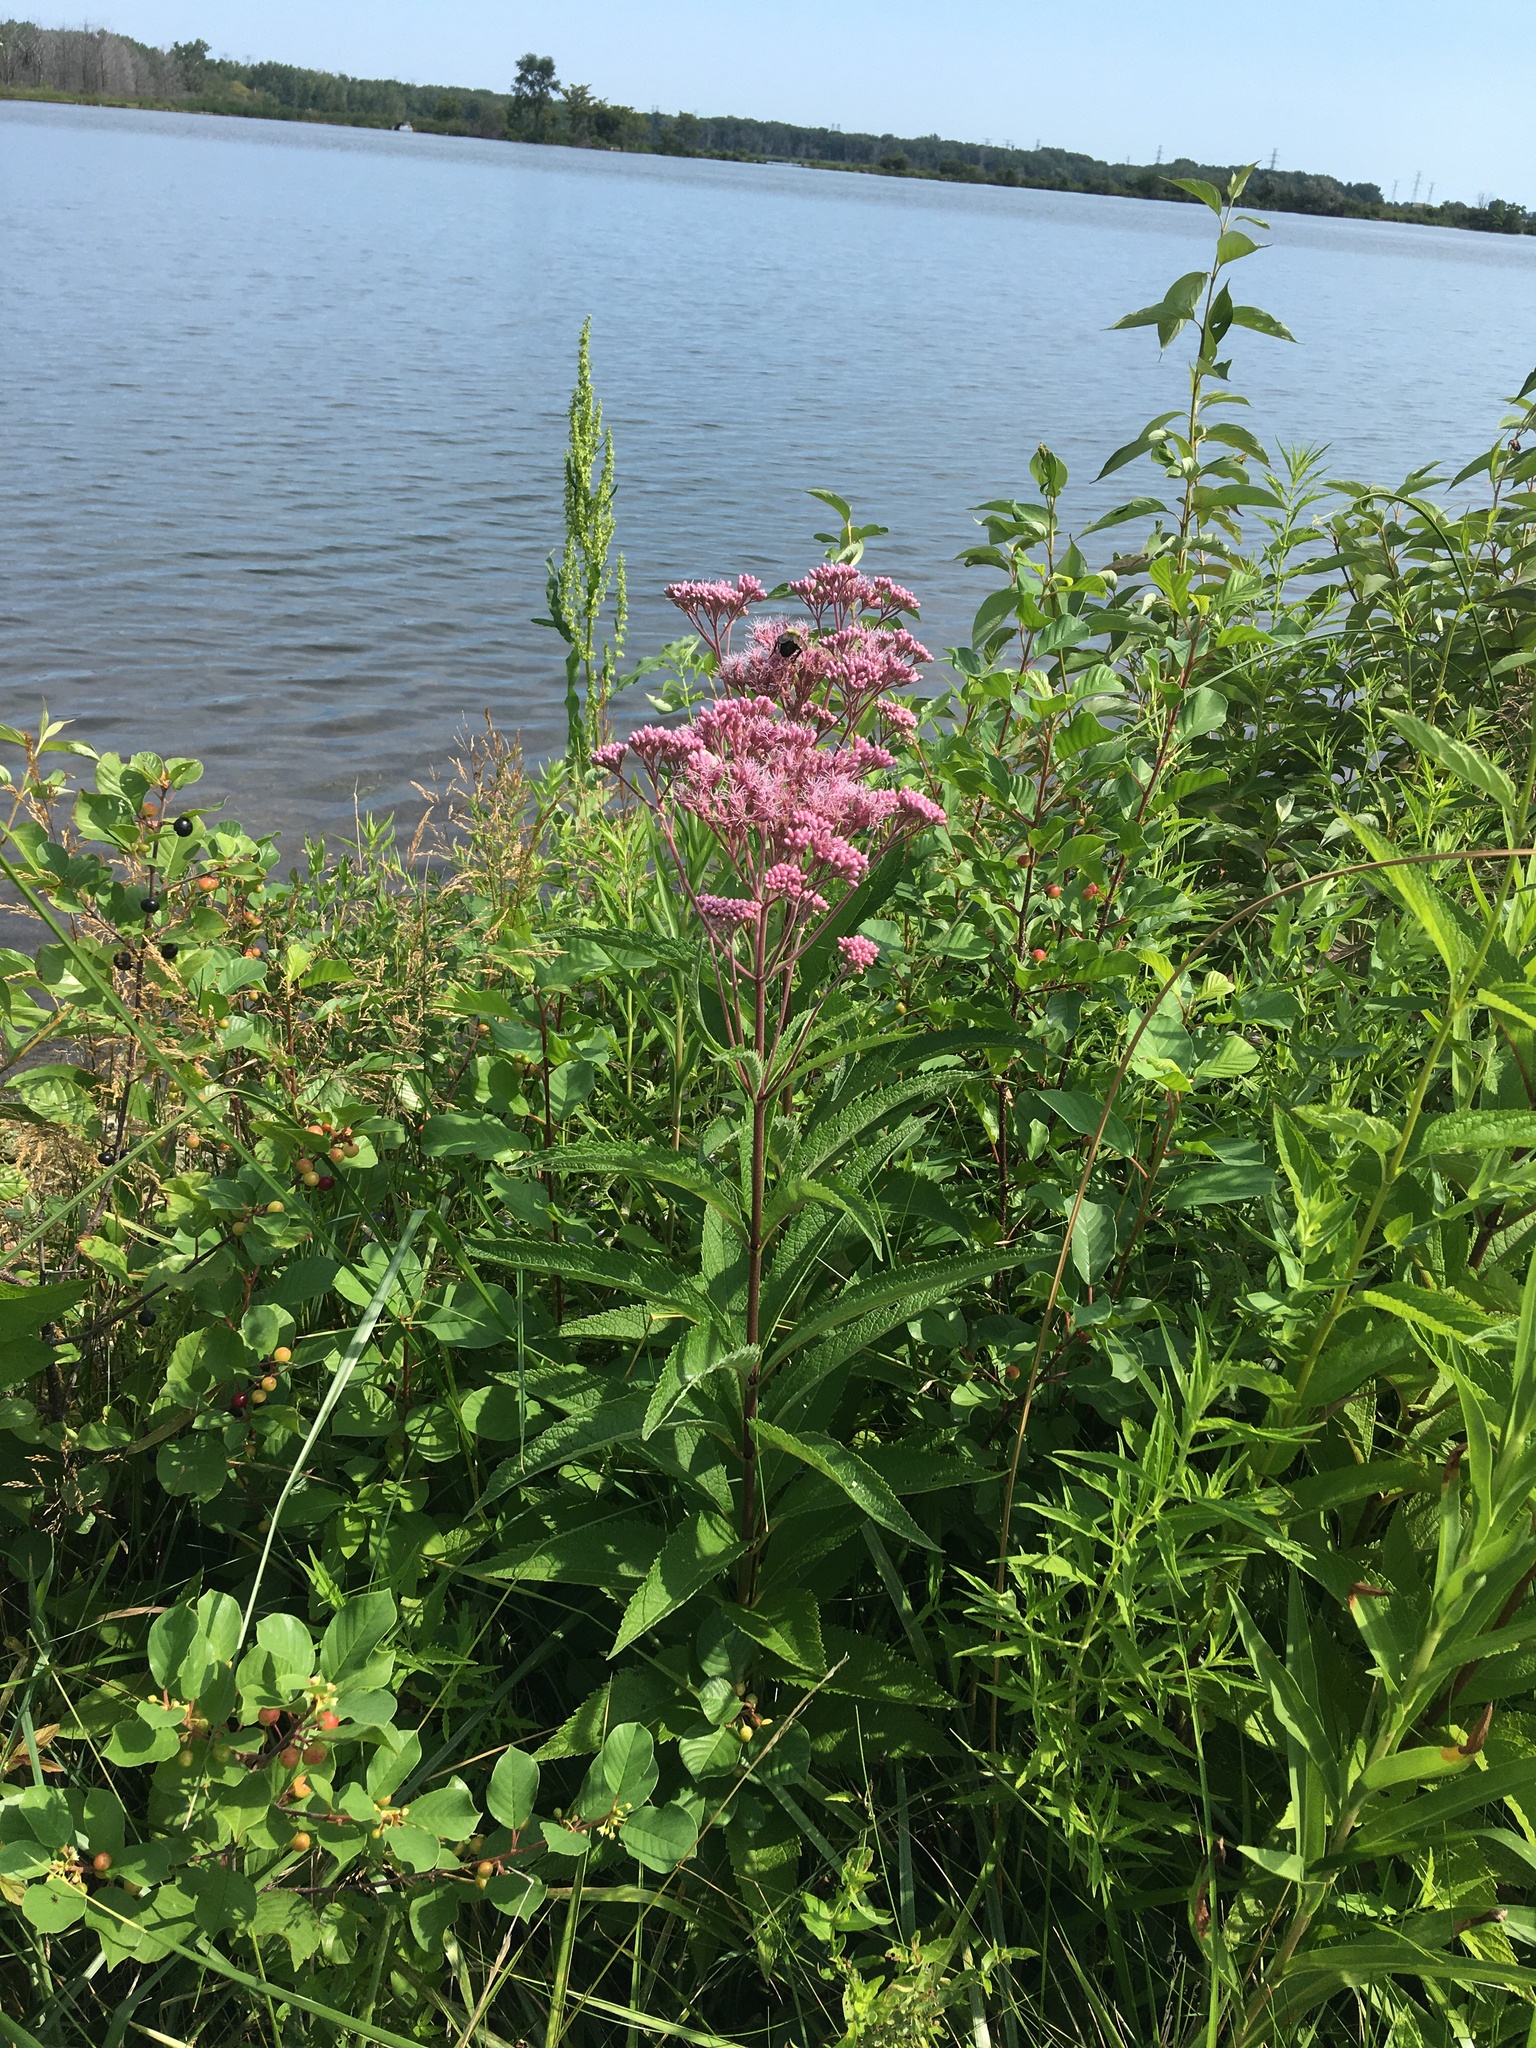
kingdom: Plantae
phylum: Tracheophyta
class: Magnoliopsida
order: Asterales
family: Asteraceae
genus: Eutrochium
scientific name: Eutrochium maculatum
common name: Spotted joe pye weed
